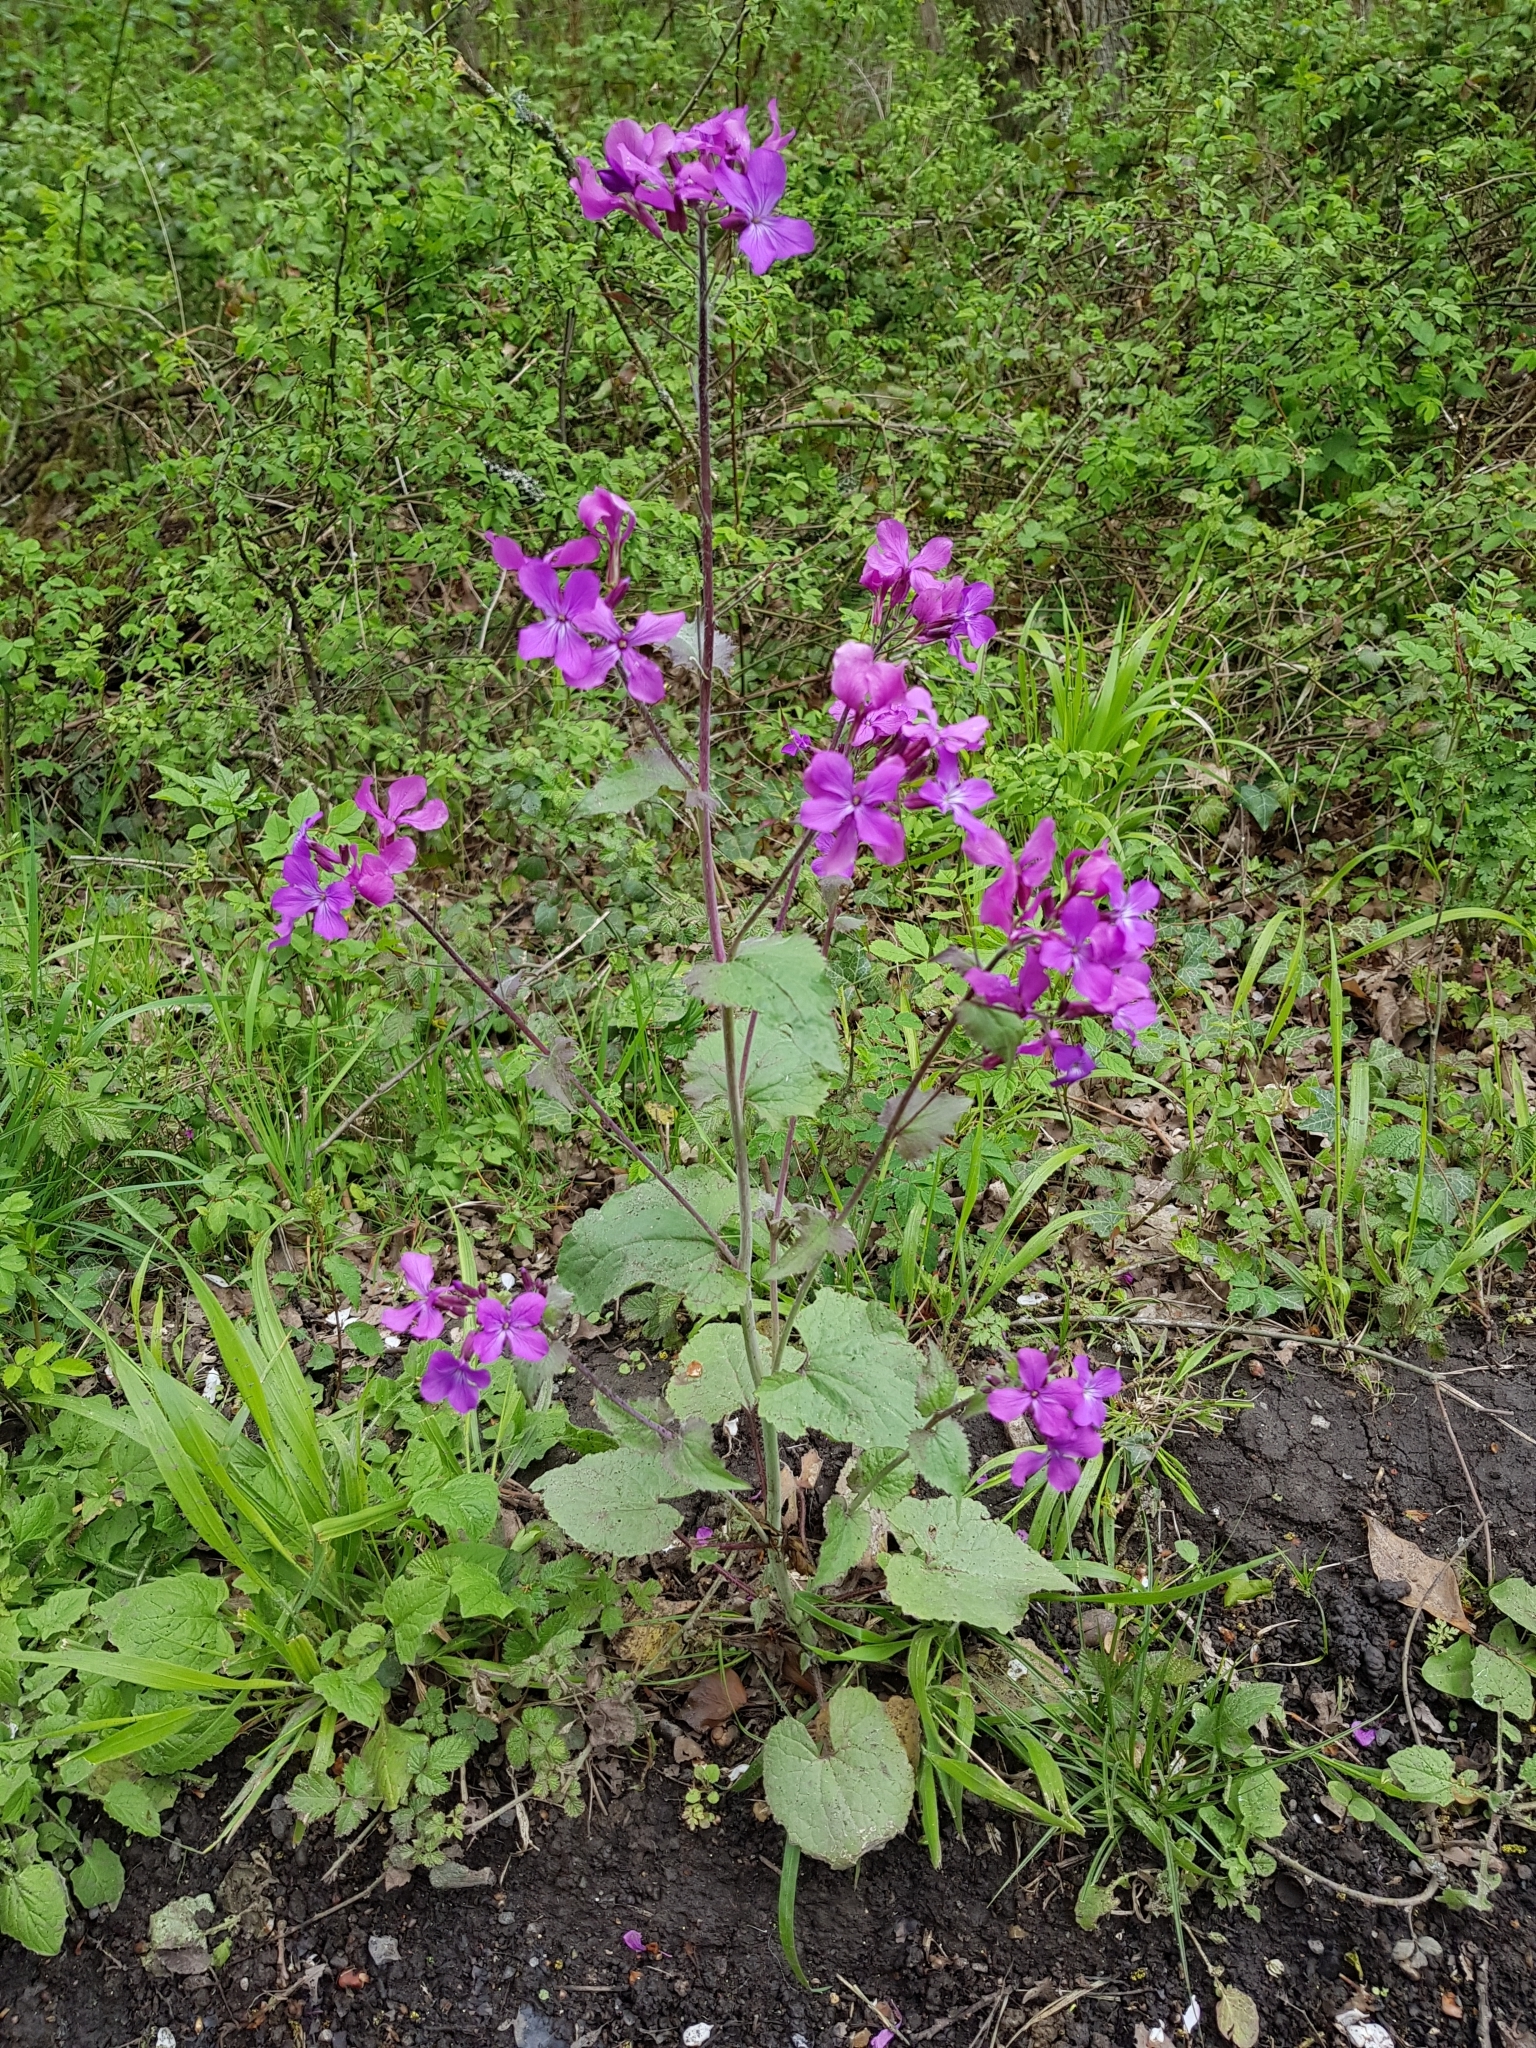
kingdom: Plantae
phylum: Tracheophyta
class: Magnoliopsida
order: Brassicales
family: Brassicaceae
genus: Lunaria
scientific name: Lunaria annua
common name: Honesty
